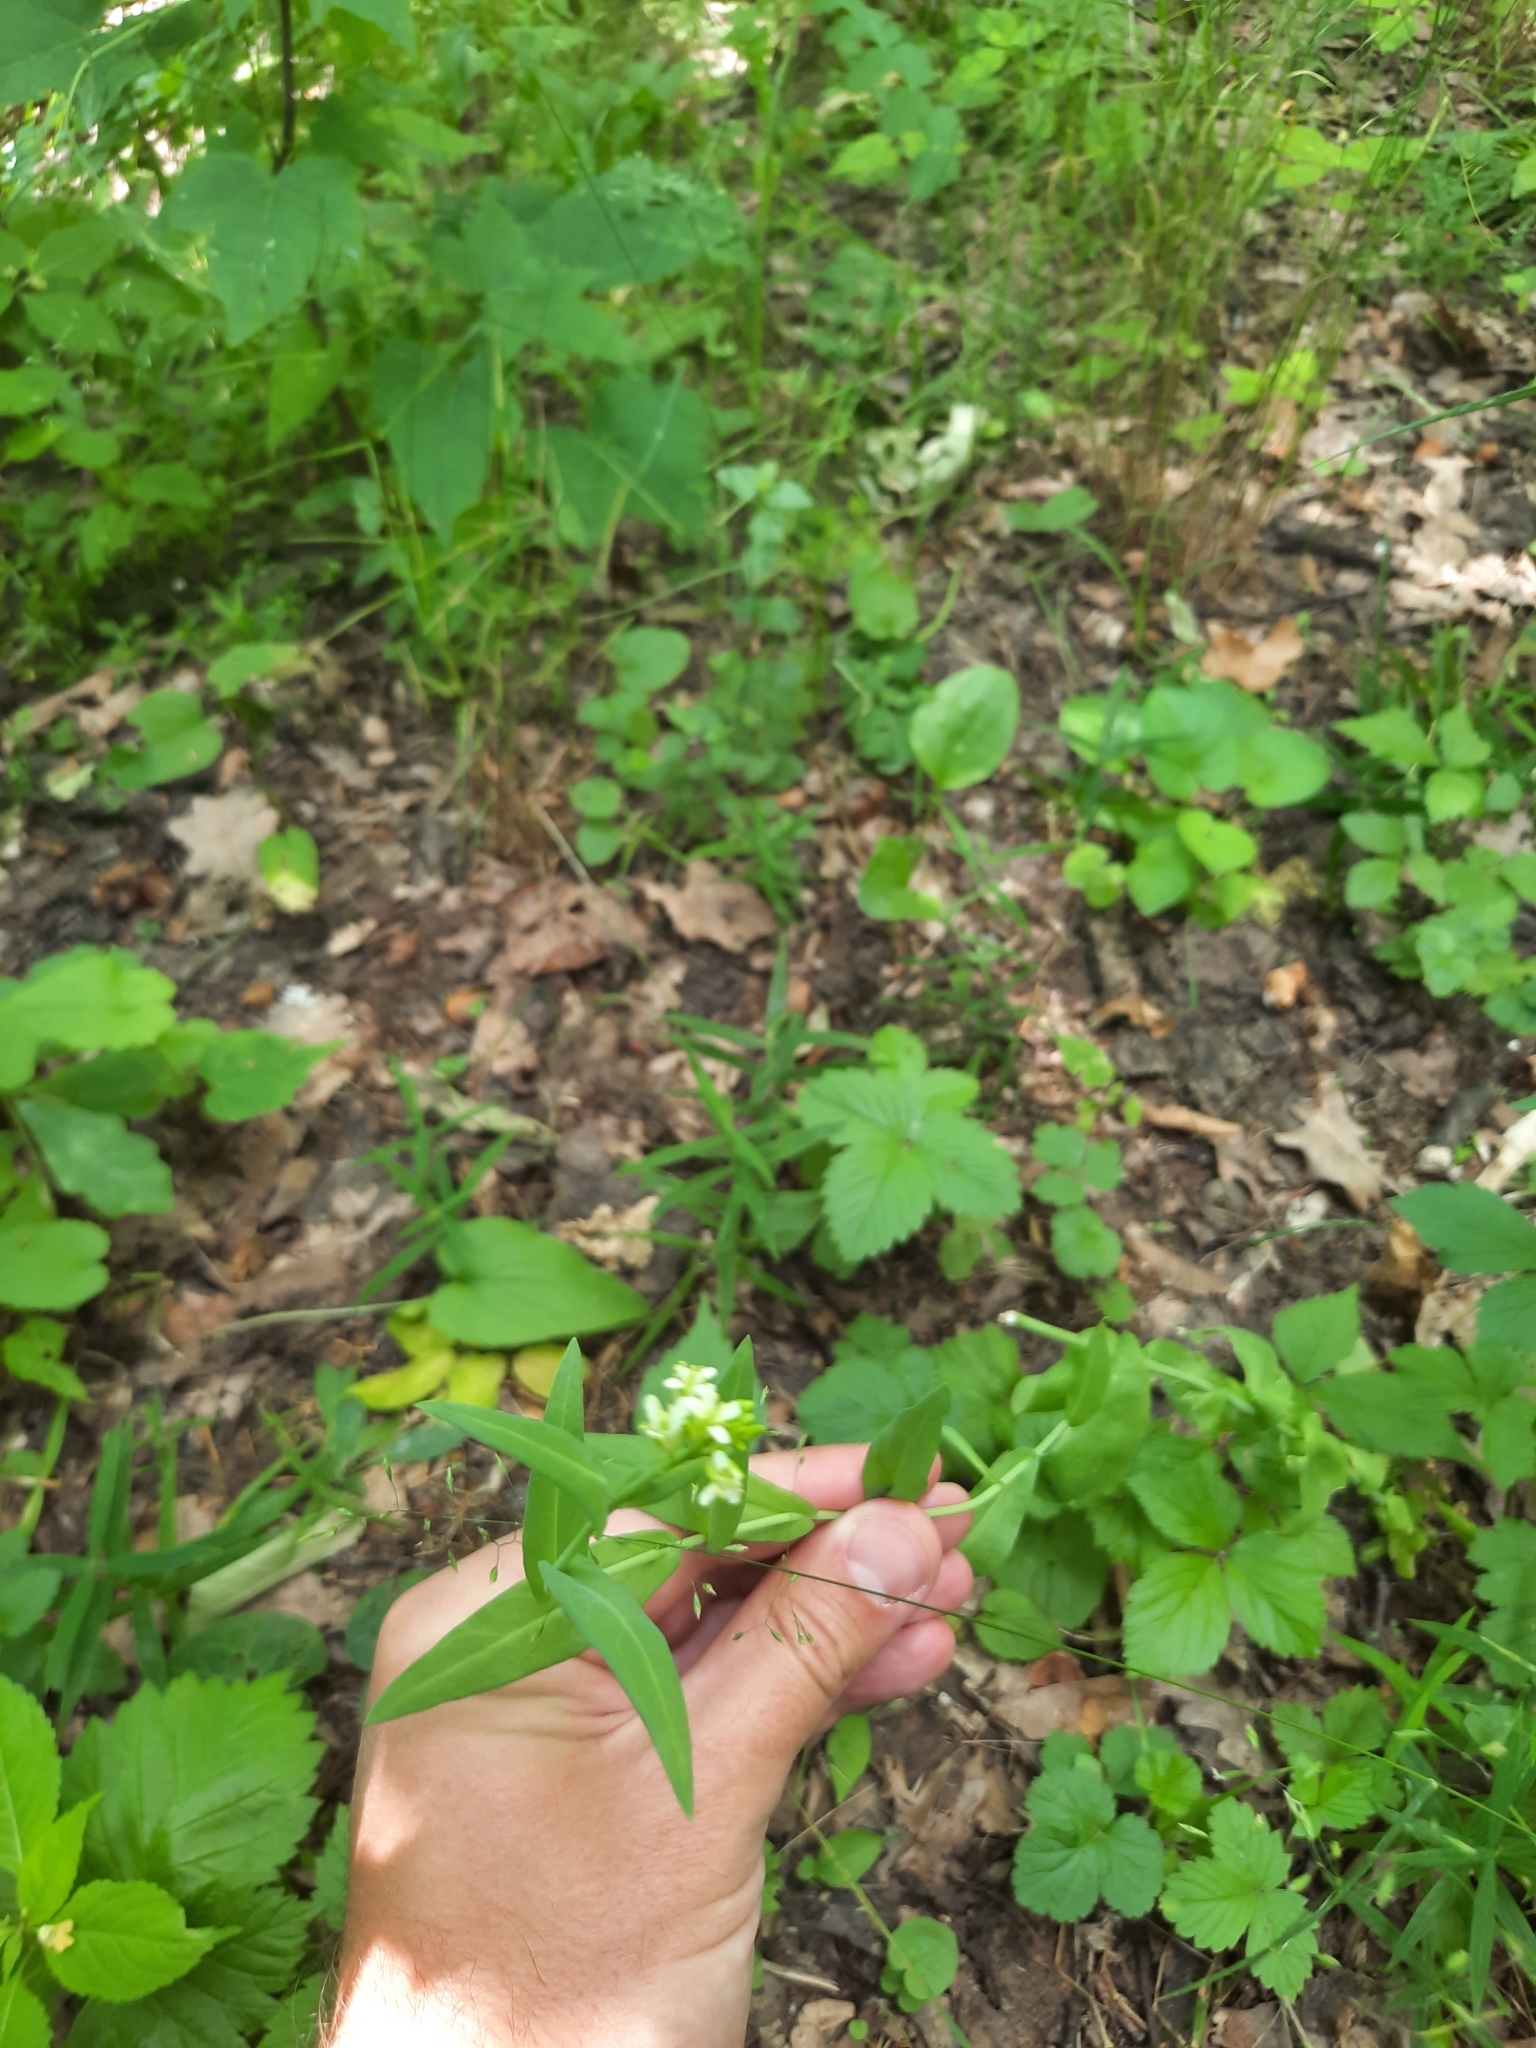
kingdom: Plantae
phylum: Tracheophyta
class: Magnoliopsida
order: Brassicales
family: Brassicaceae
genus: Turritis
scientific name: Turritis glabra
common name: Tower rockcress
